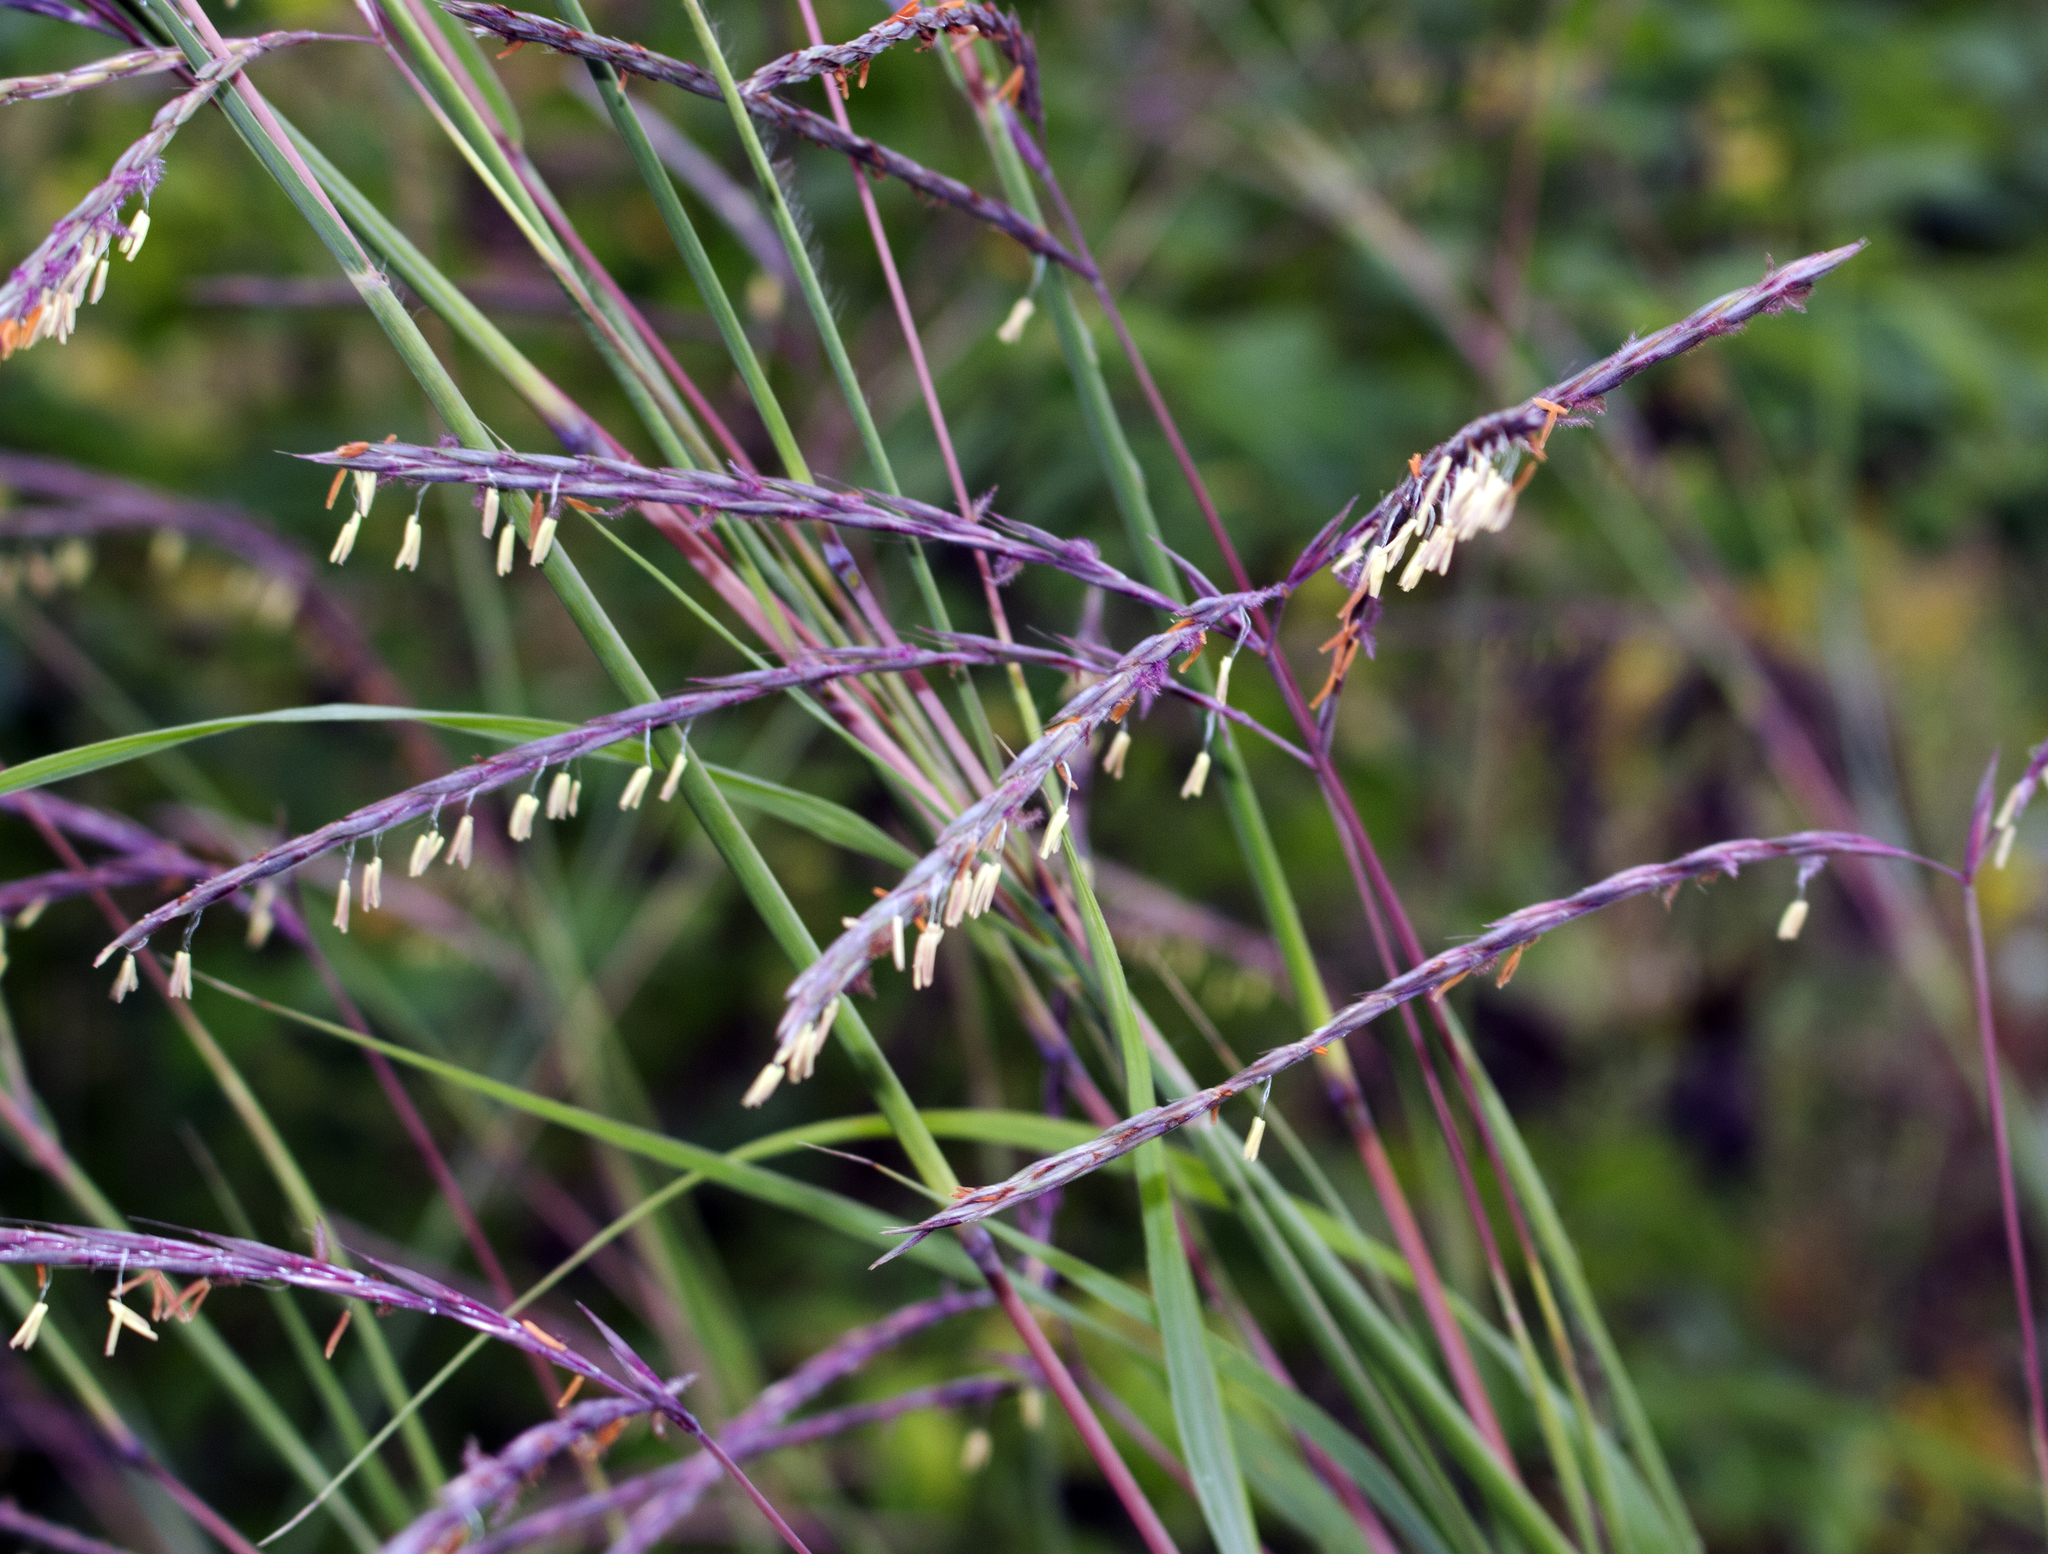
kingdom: Plantae
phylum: Tracheophyta
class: Liliopsida
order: Poales
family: Poaceae
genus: Andropogon
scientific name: Andropogon gerardi
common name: Big bluestem
